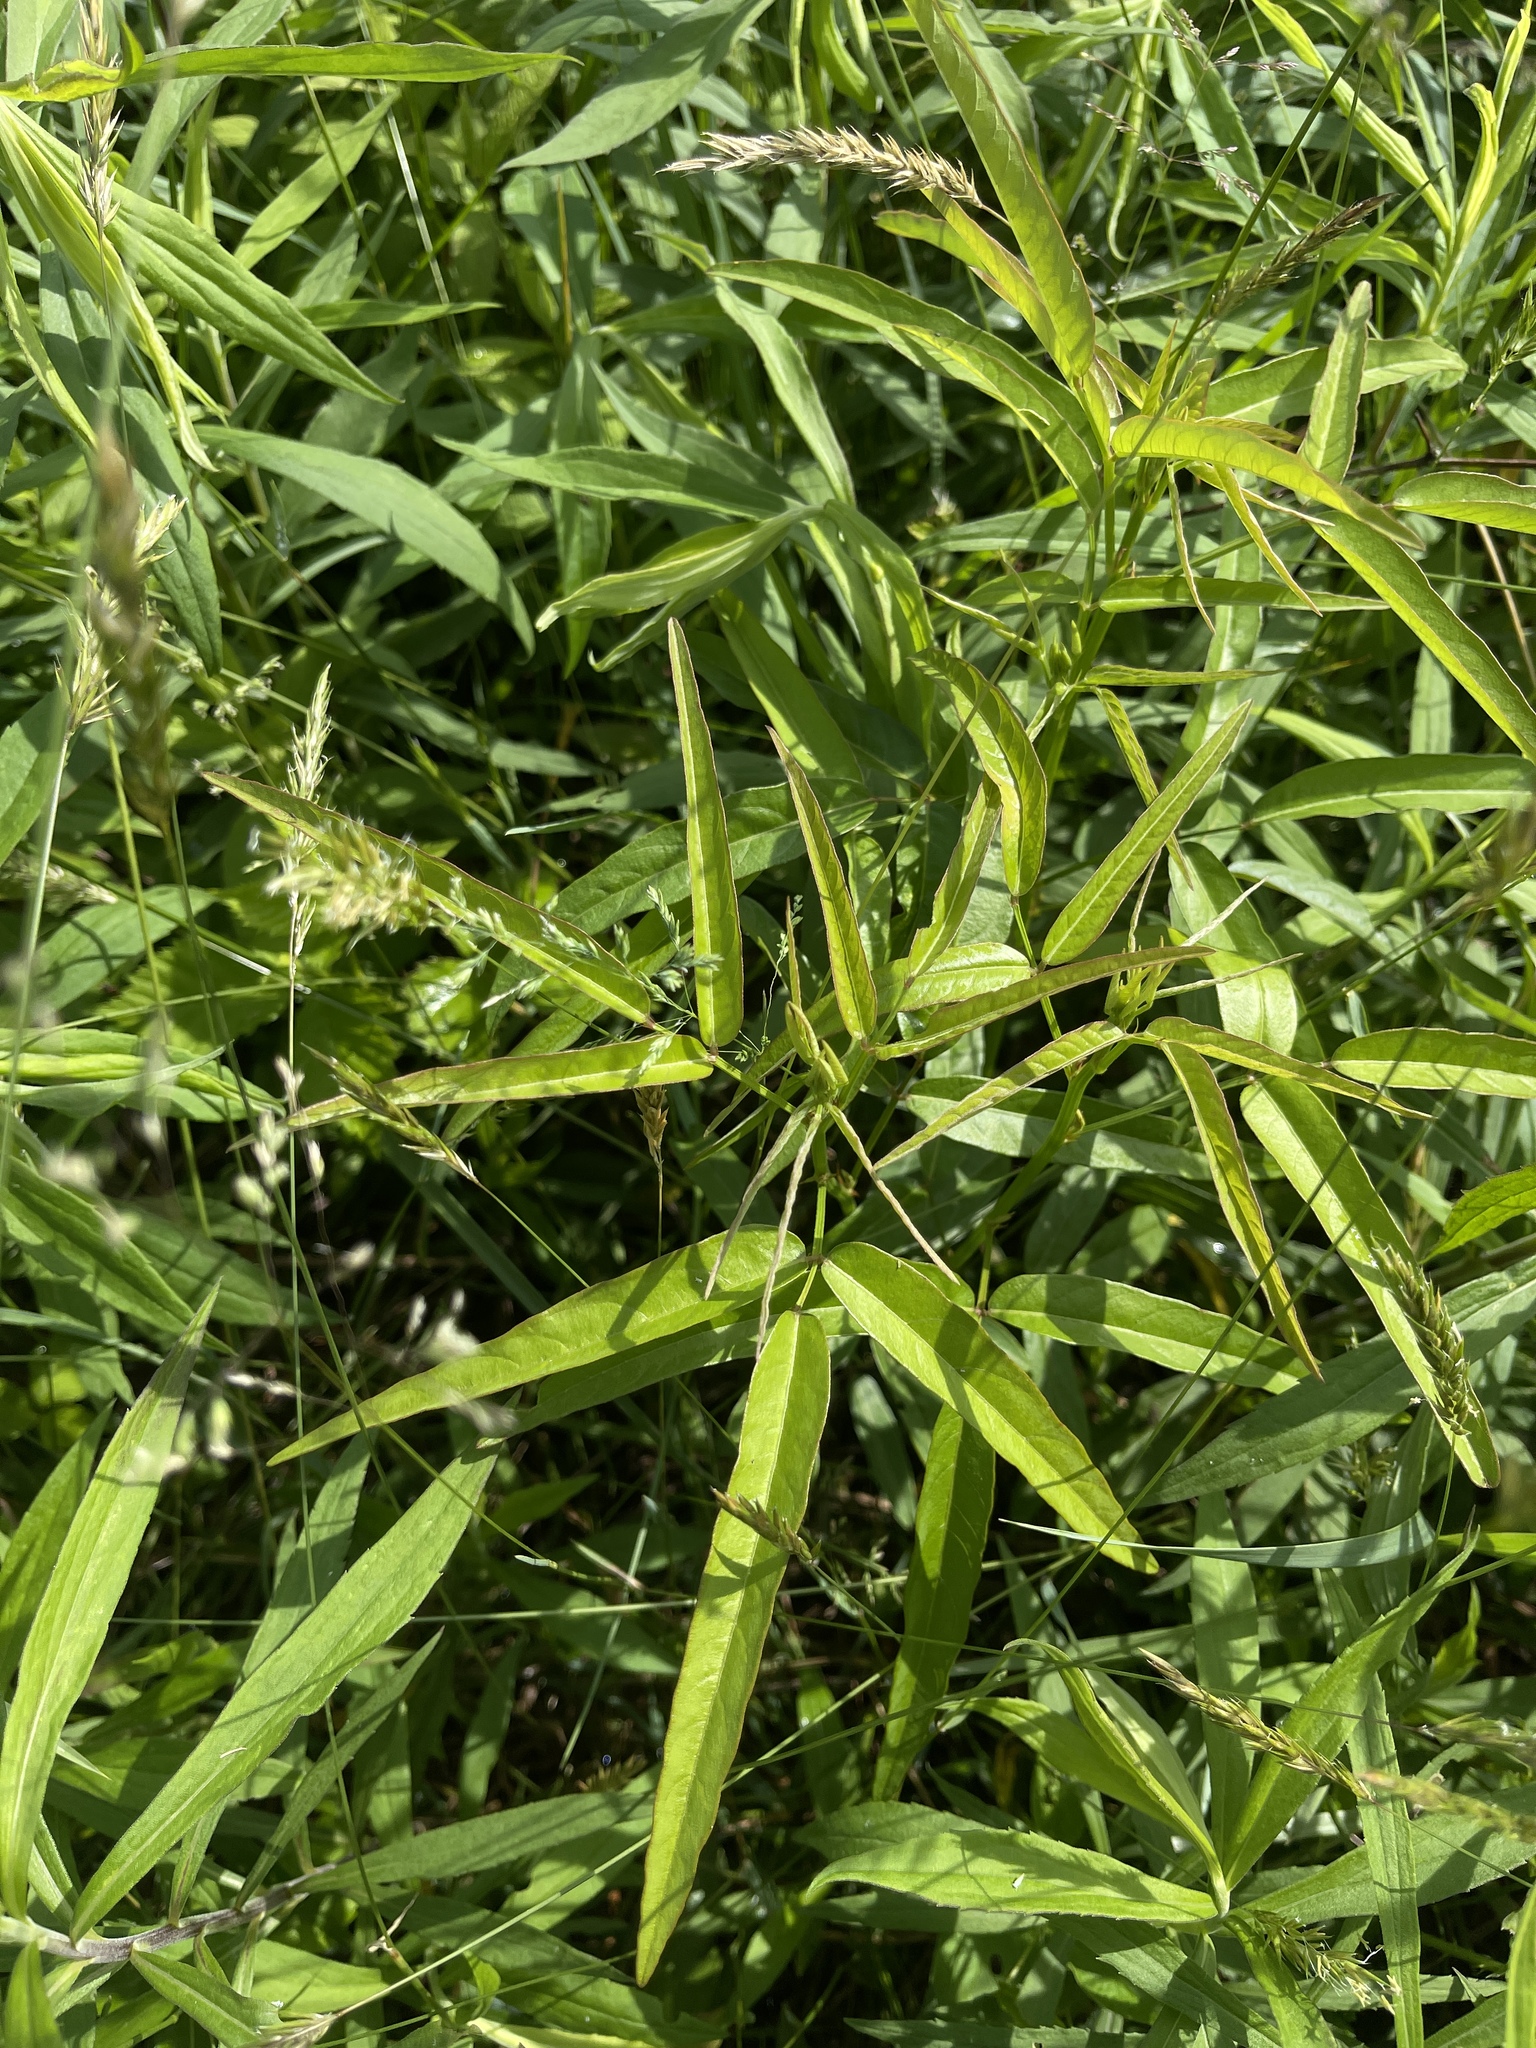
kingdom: Plantae
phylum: Tracheophyta
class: Magnoliopsida
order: Fabales
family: Fabaceae
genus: Desmodium
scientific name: Desmodium paniculatum
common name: Panicled tick-clover
